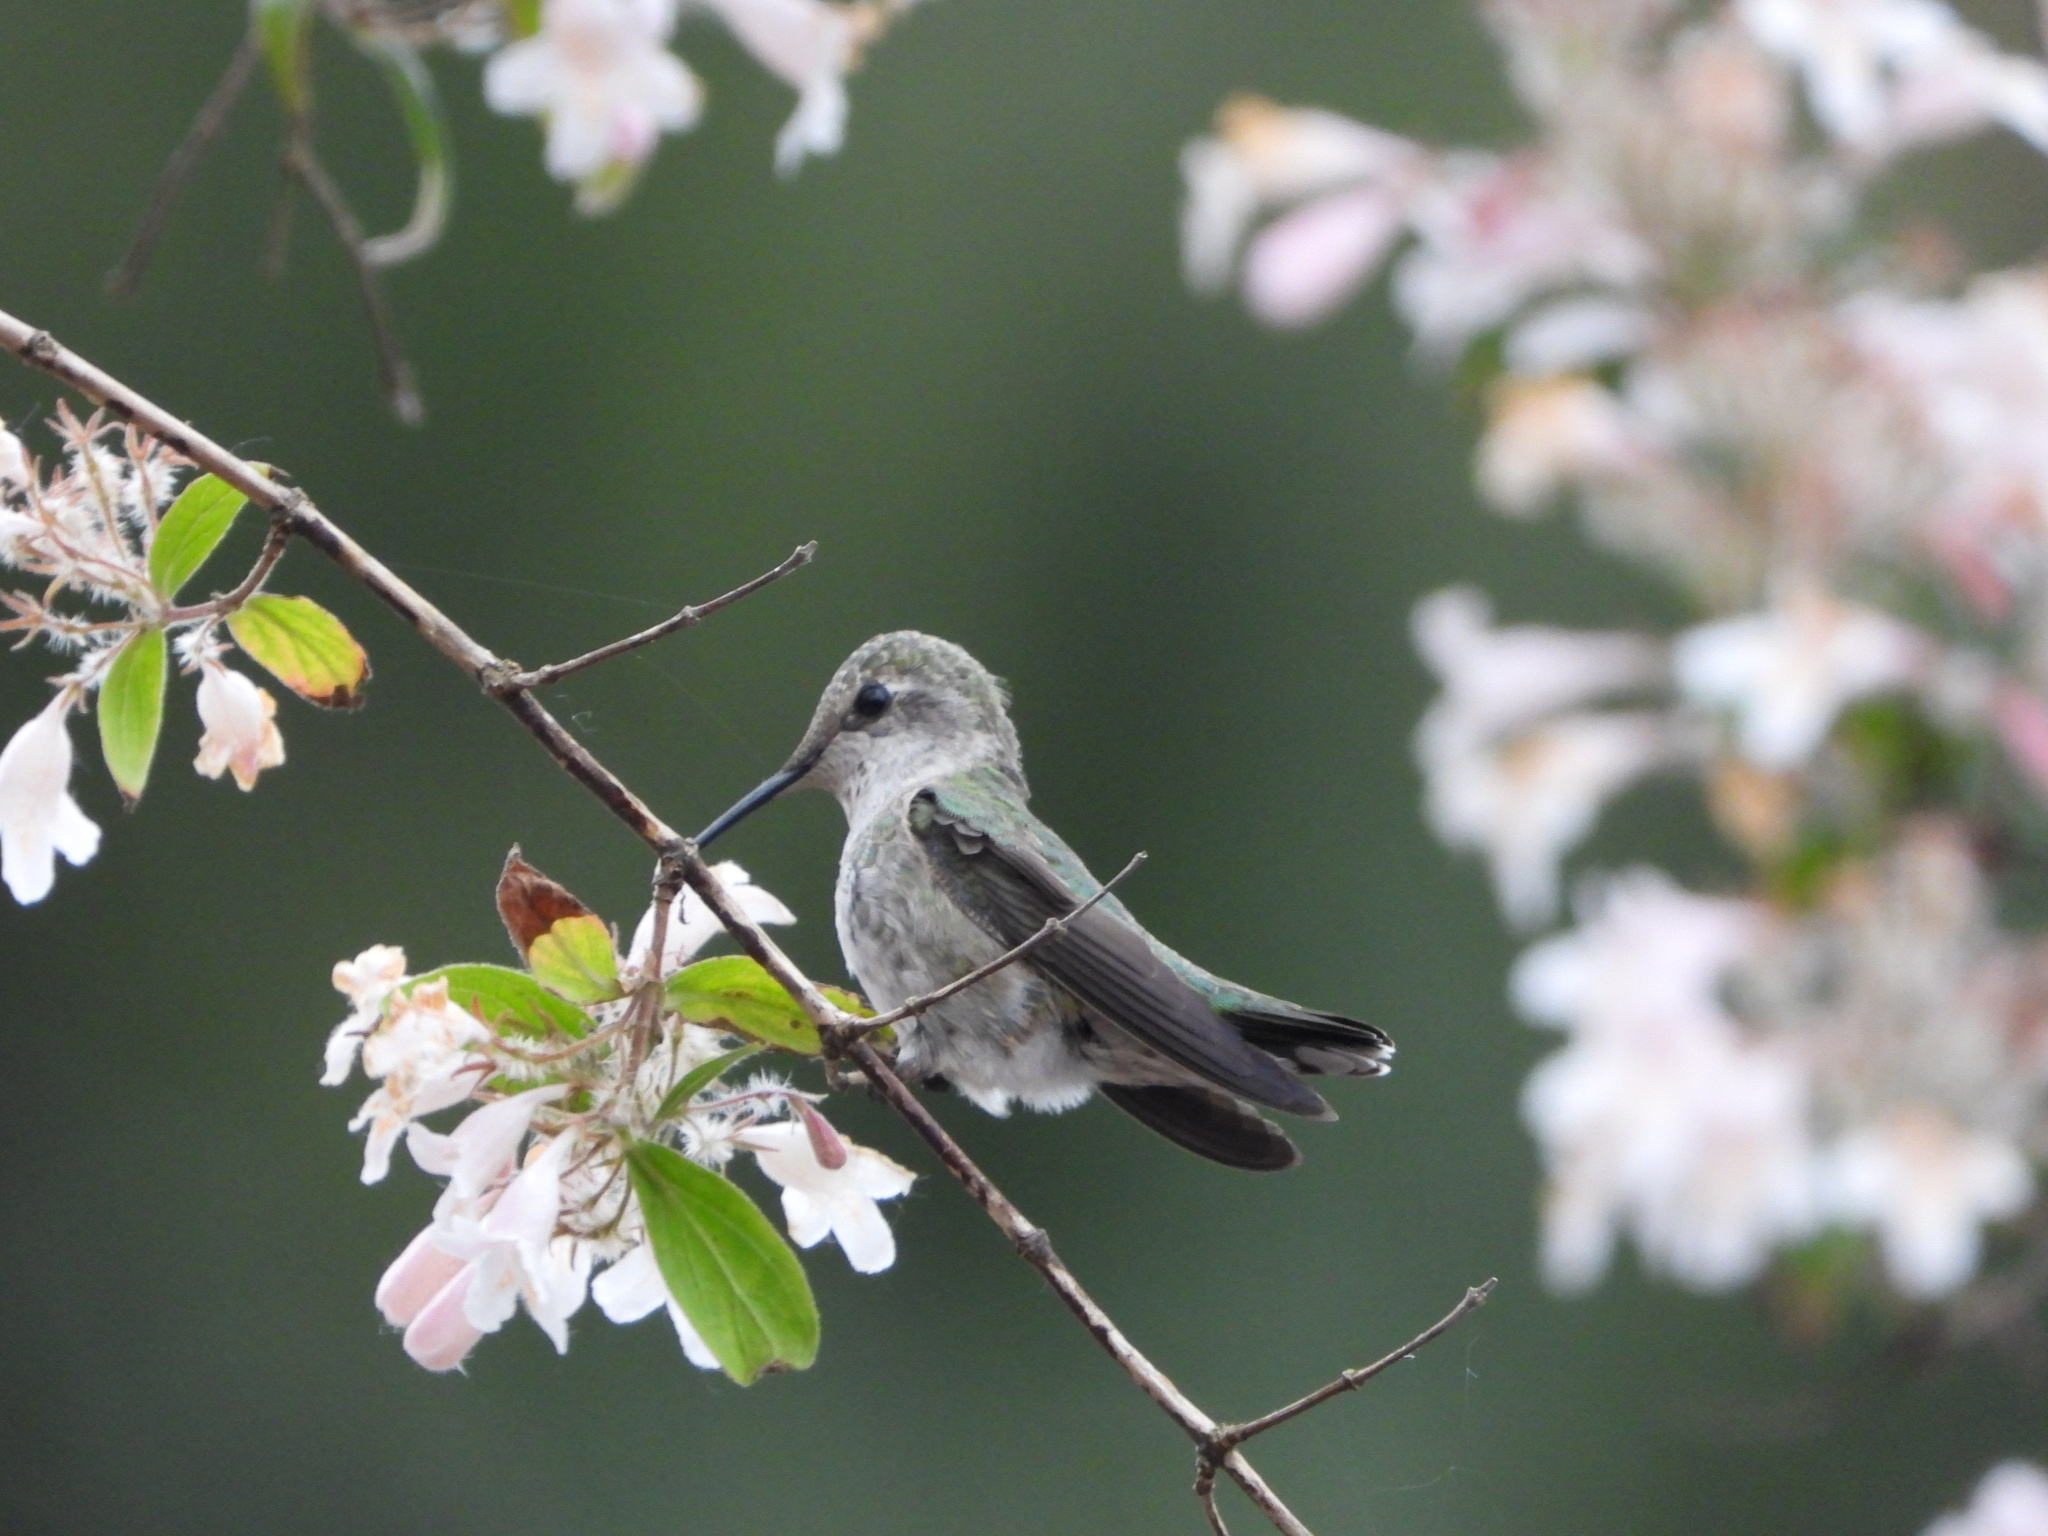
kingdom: Animalia
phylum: Chordata
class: Aves
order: Apodiformes
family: Trochilidae
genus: Calypte
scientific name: Calypte anna
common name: Anna's hummingbird
